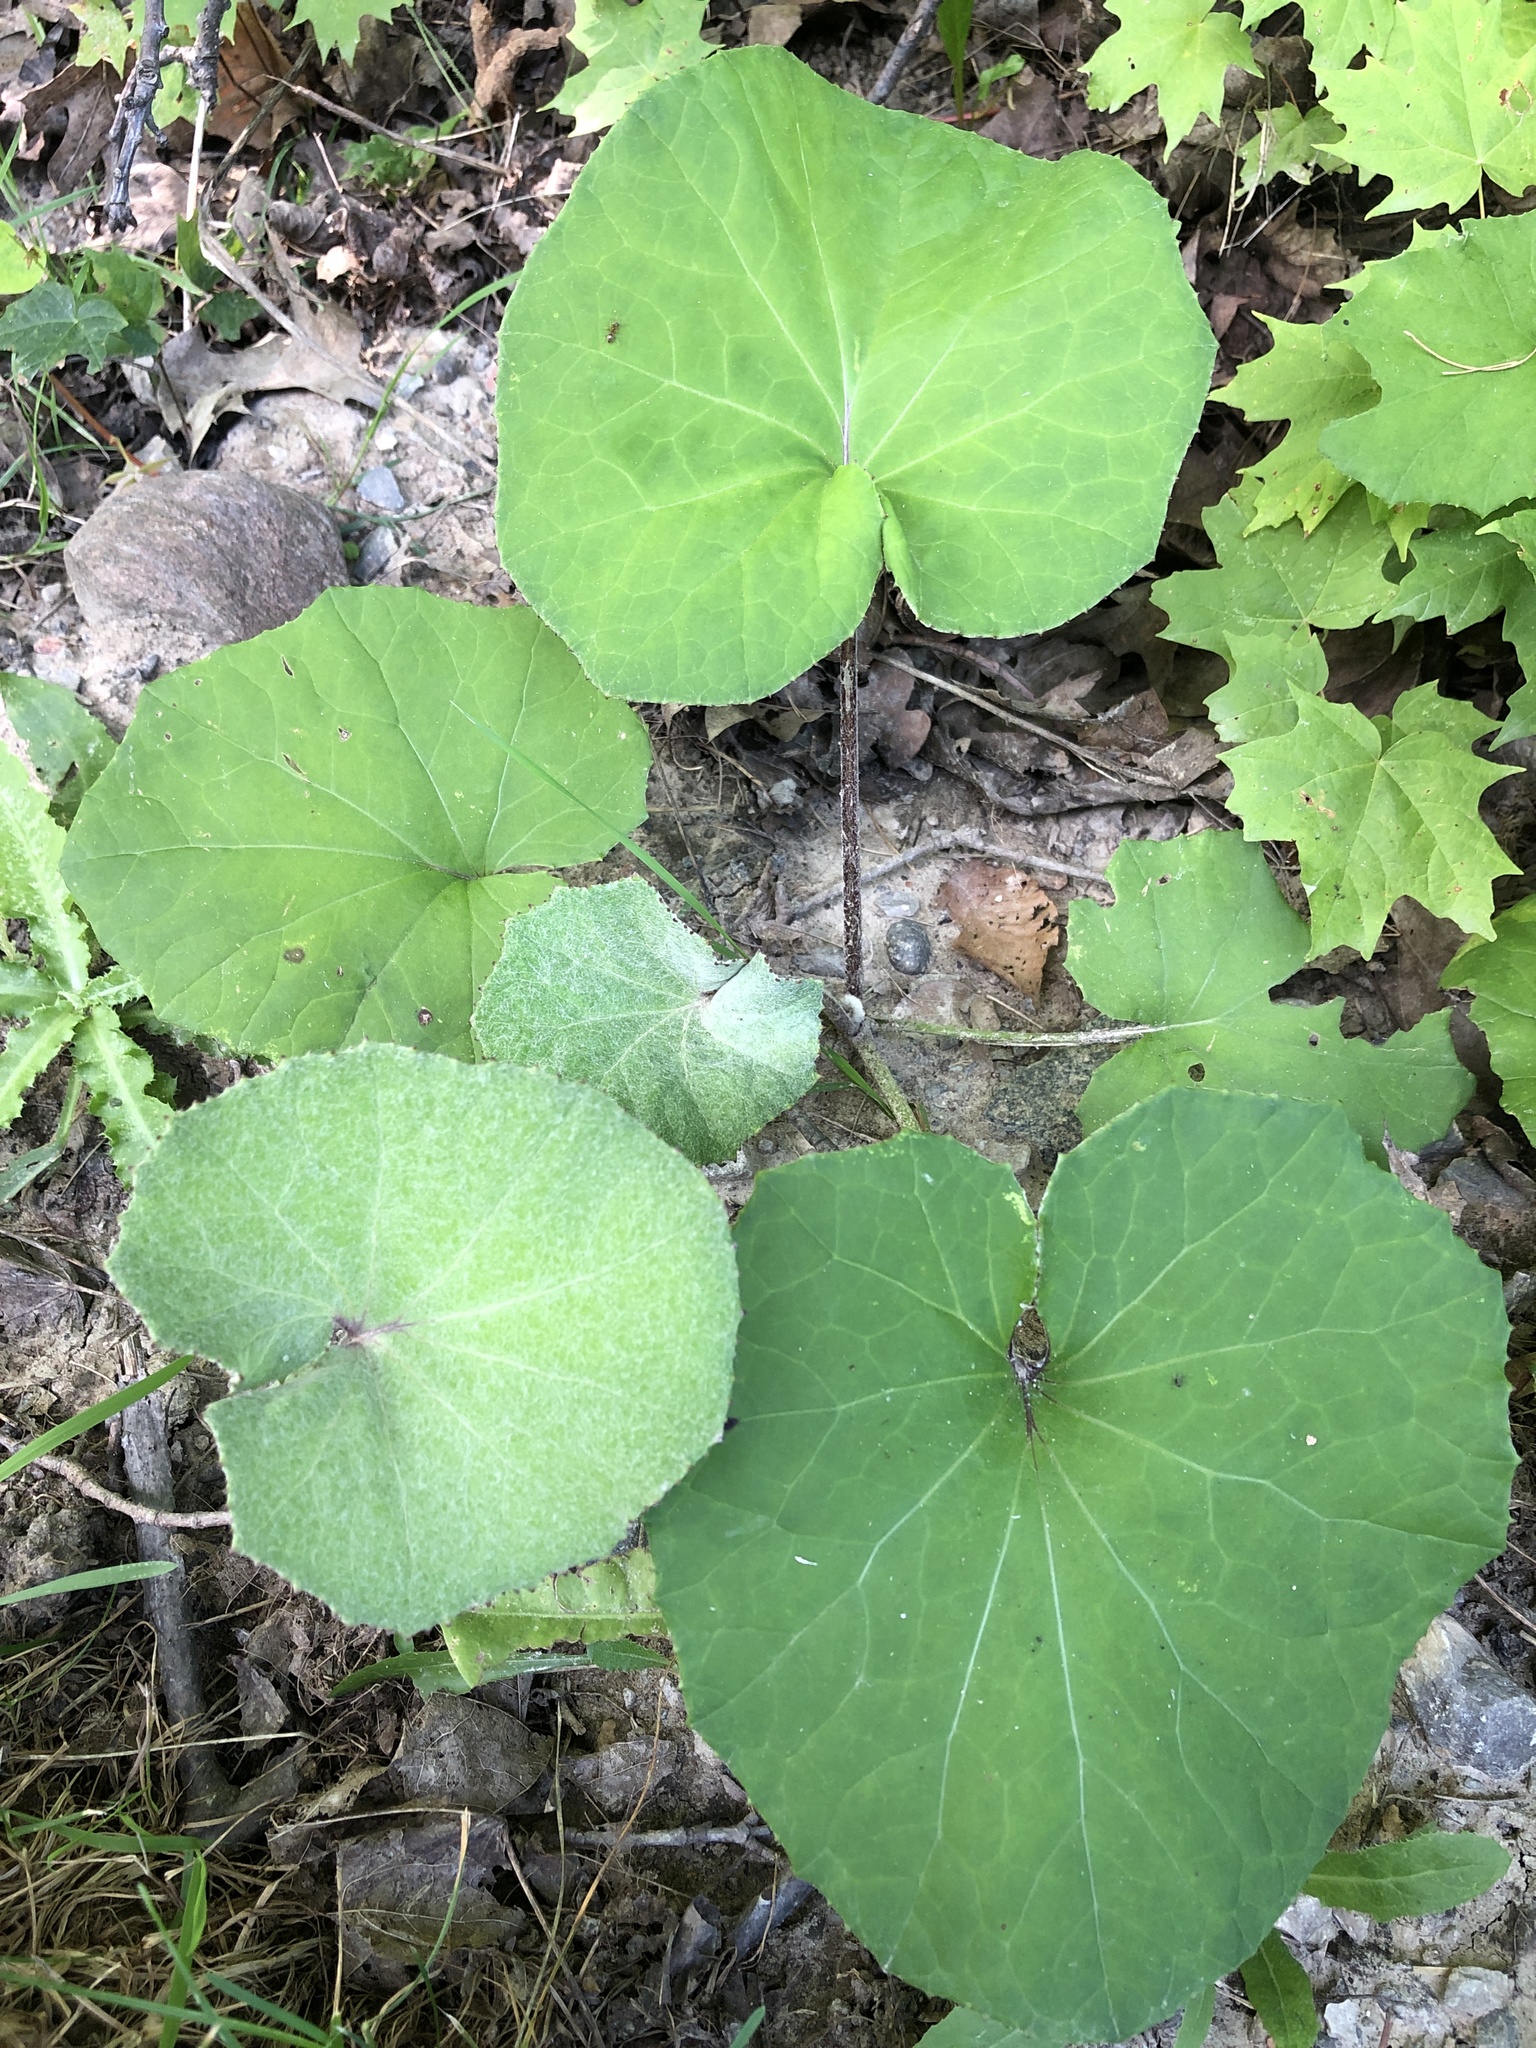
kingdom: Plantae
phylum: Tracheophyta
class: Magnoliopsida
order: Asterales
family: Asteraceae
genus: Tussilago
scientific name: Tussilago farfara
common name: Coltsfoot
